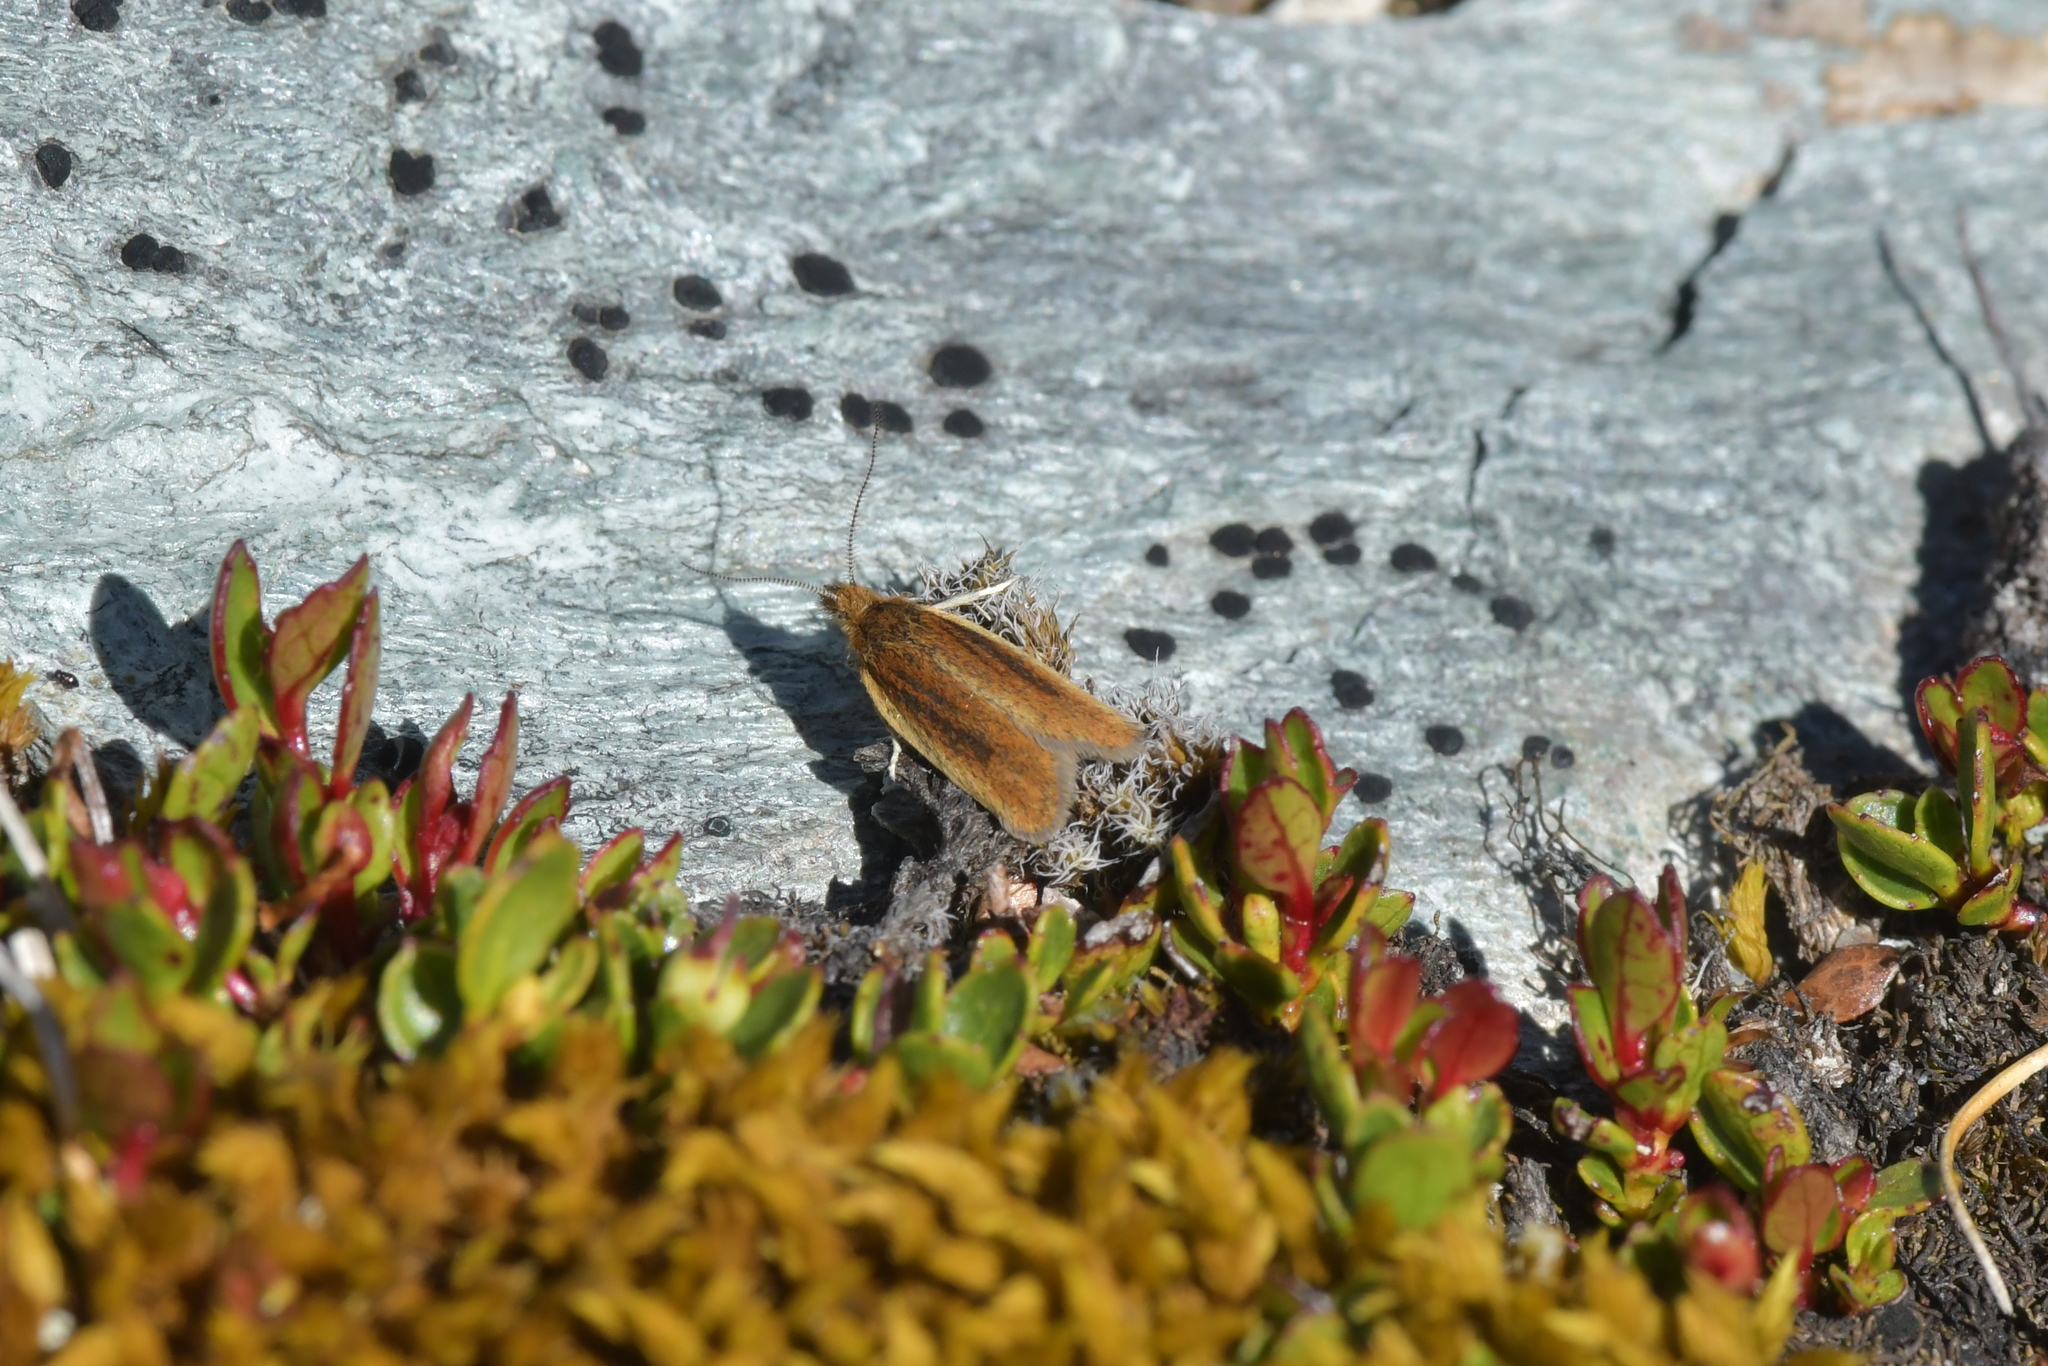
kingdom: Animalia
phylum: Arthropoda
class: Insecta
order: Lepidoptera
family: Tortricidae
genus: Ascerodes
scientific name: Ascerodes prochlora
